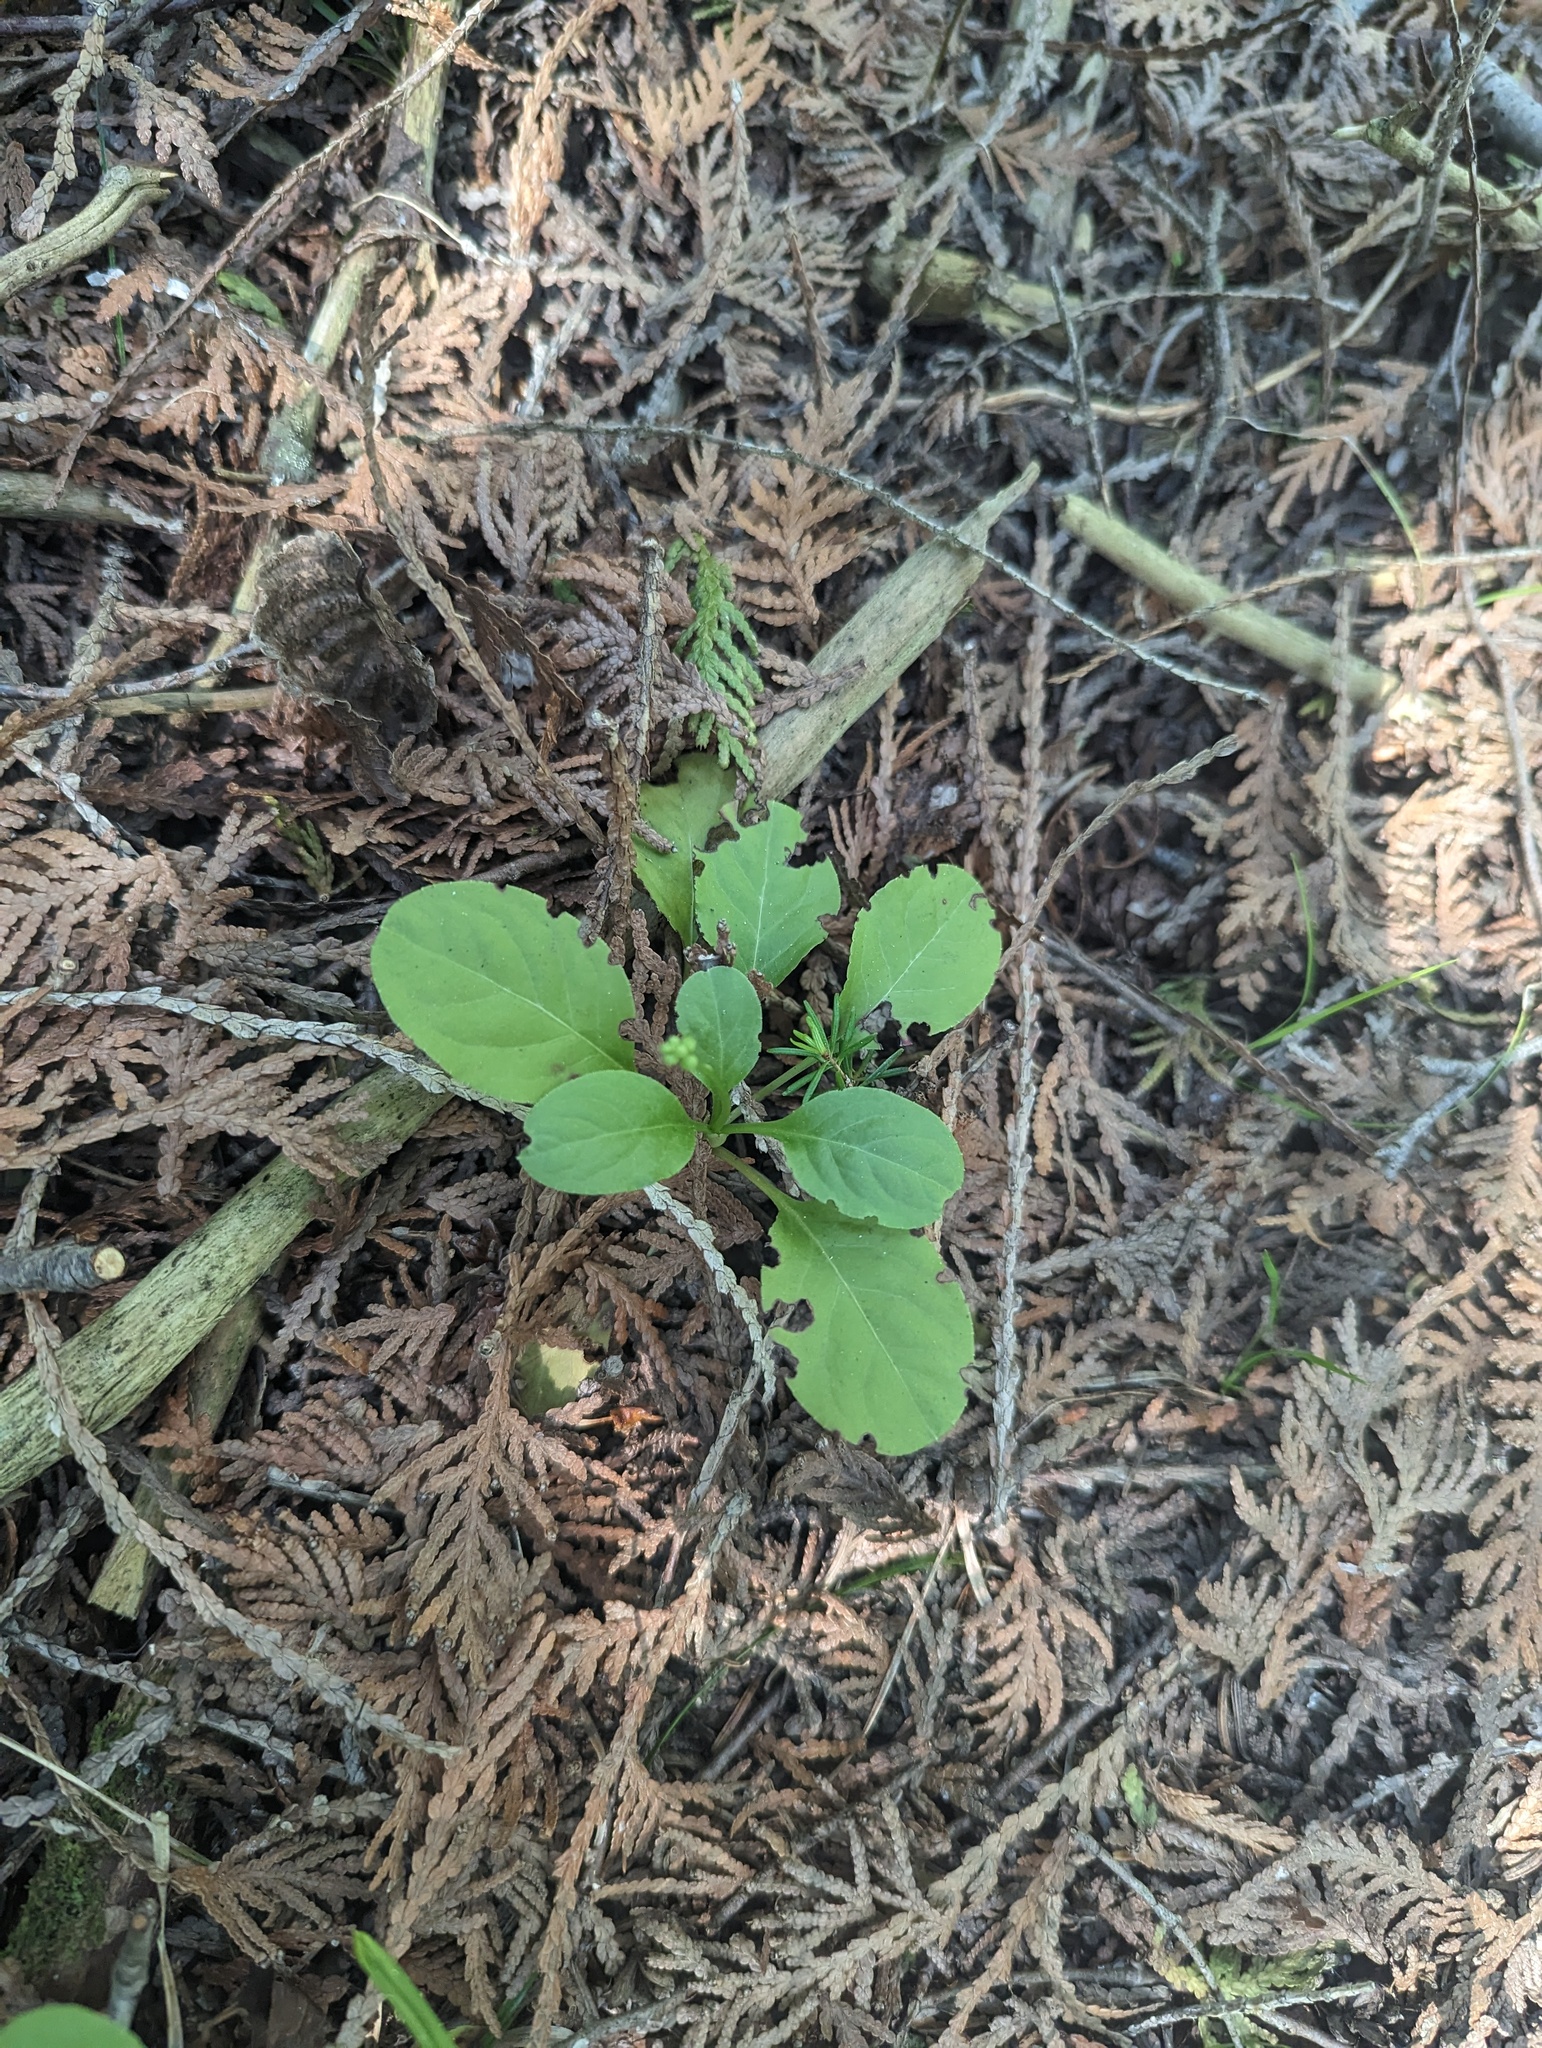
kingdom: Plantae
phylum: Tracheophyta
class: Magnoliopsida
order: Ericales
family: Ericaceae
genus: Pyrola
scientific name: Pyrola elliptica
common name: Shinleaf
